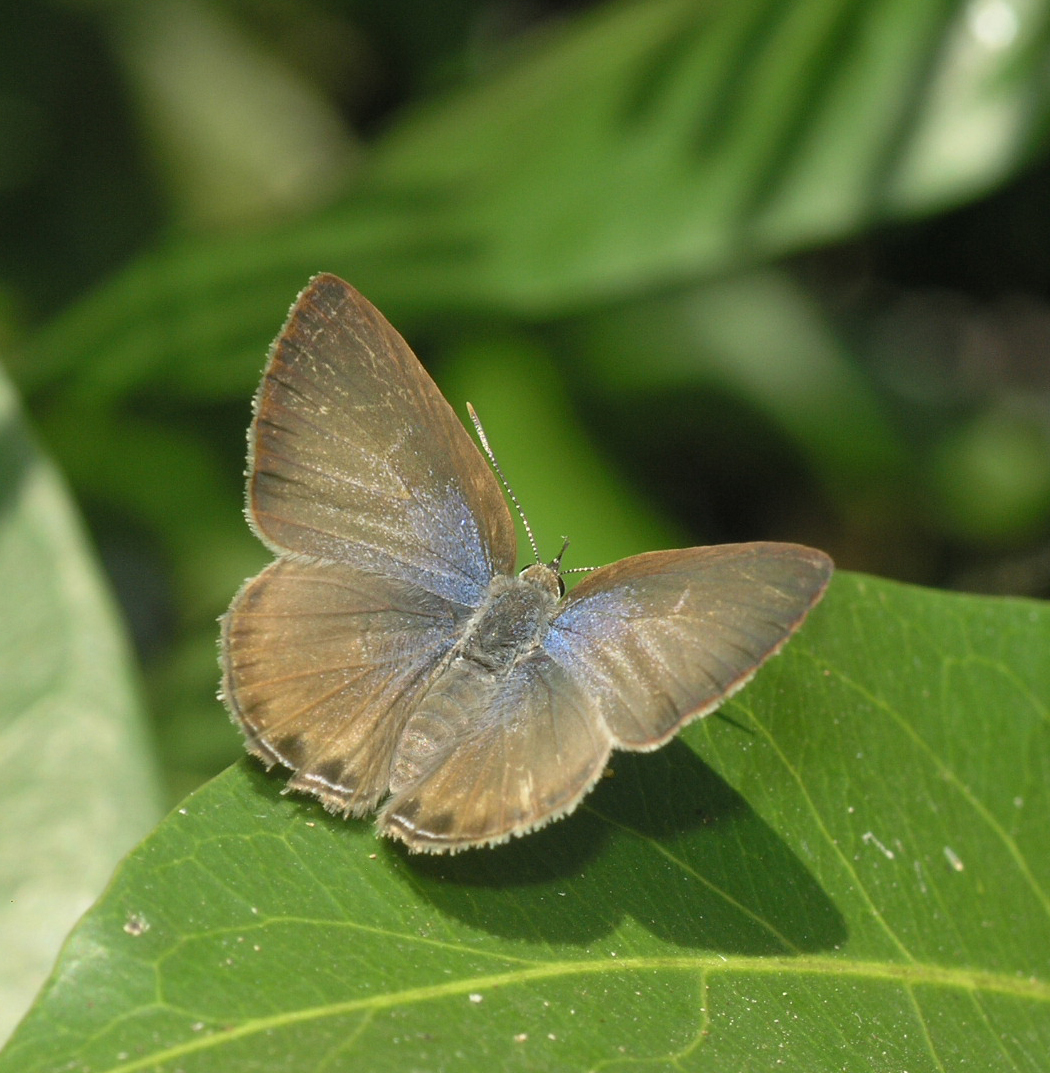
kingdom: Animalia
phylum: Arthropoda
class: Insecta
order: Lepidoptera
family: Lycaenidae
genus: Anthene
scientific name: Anthene emolus
